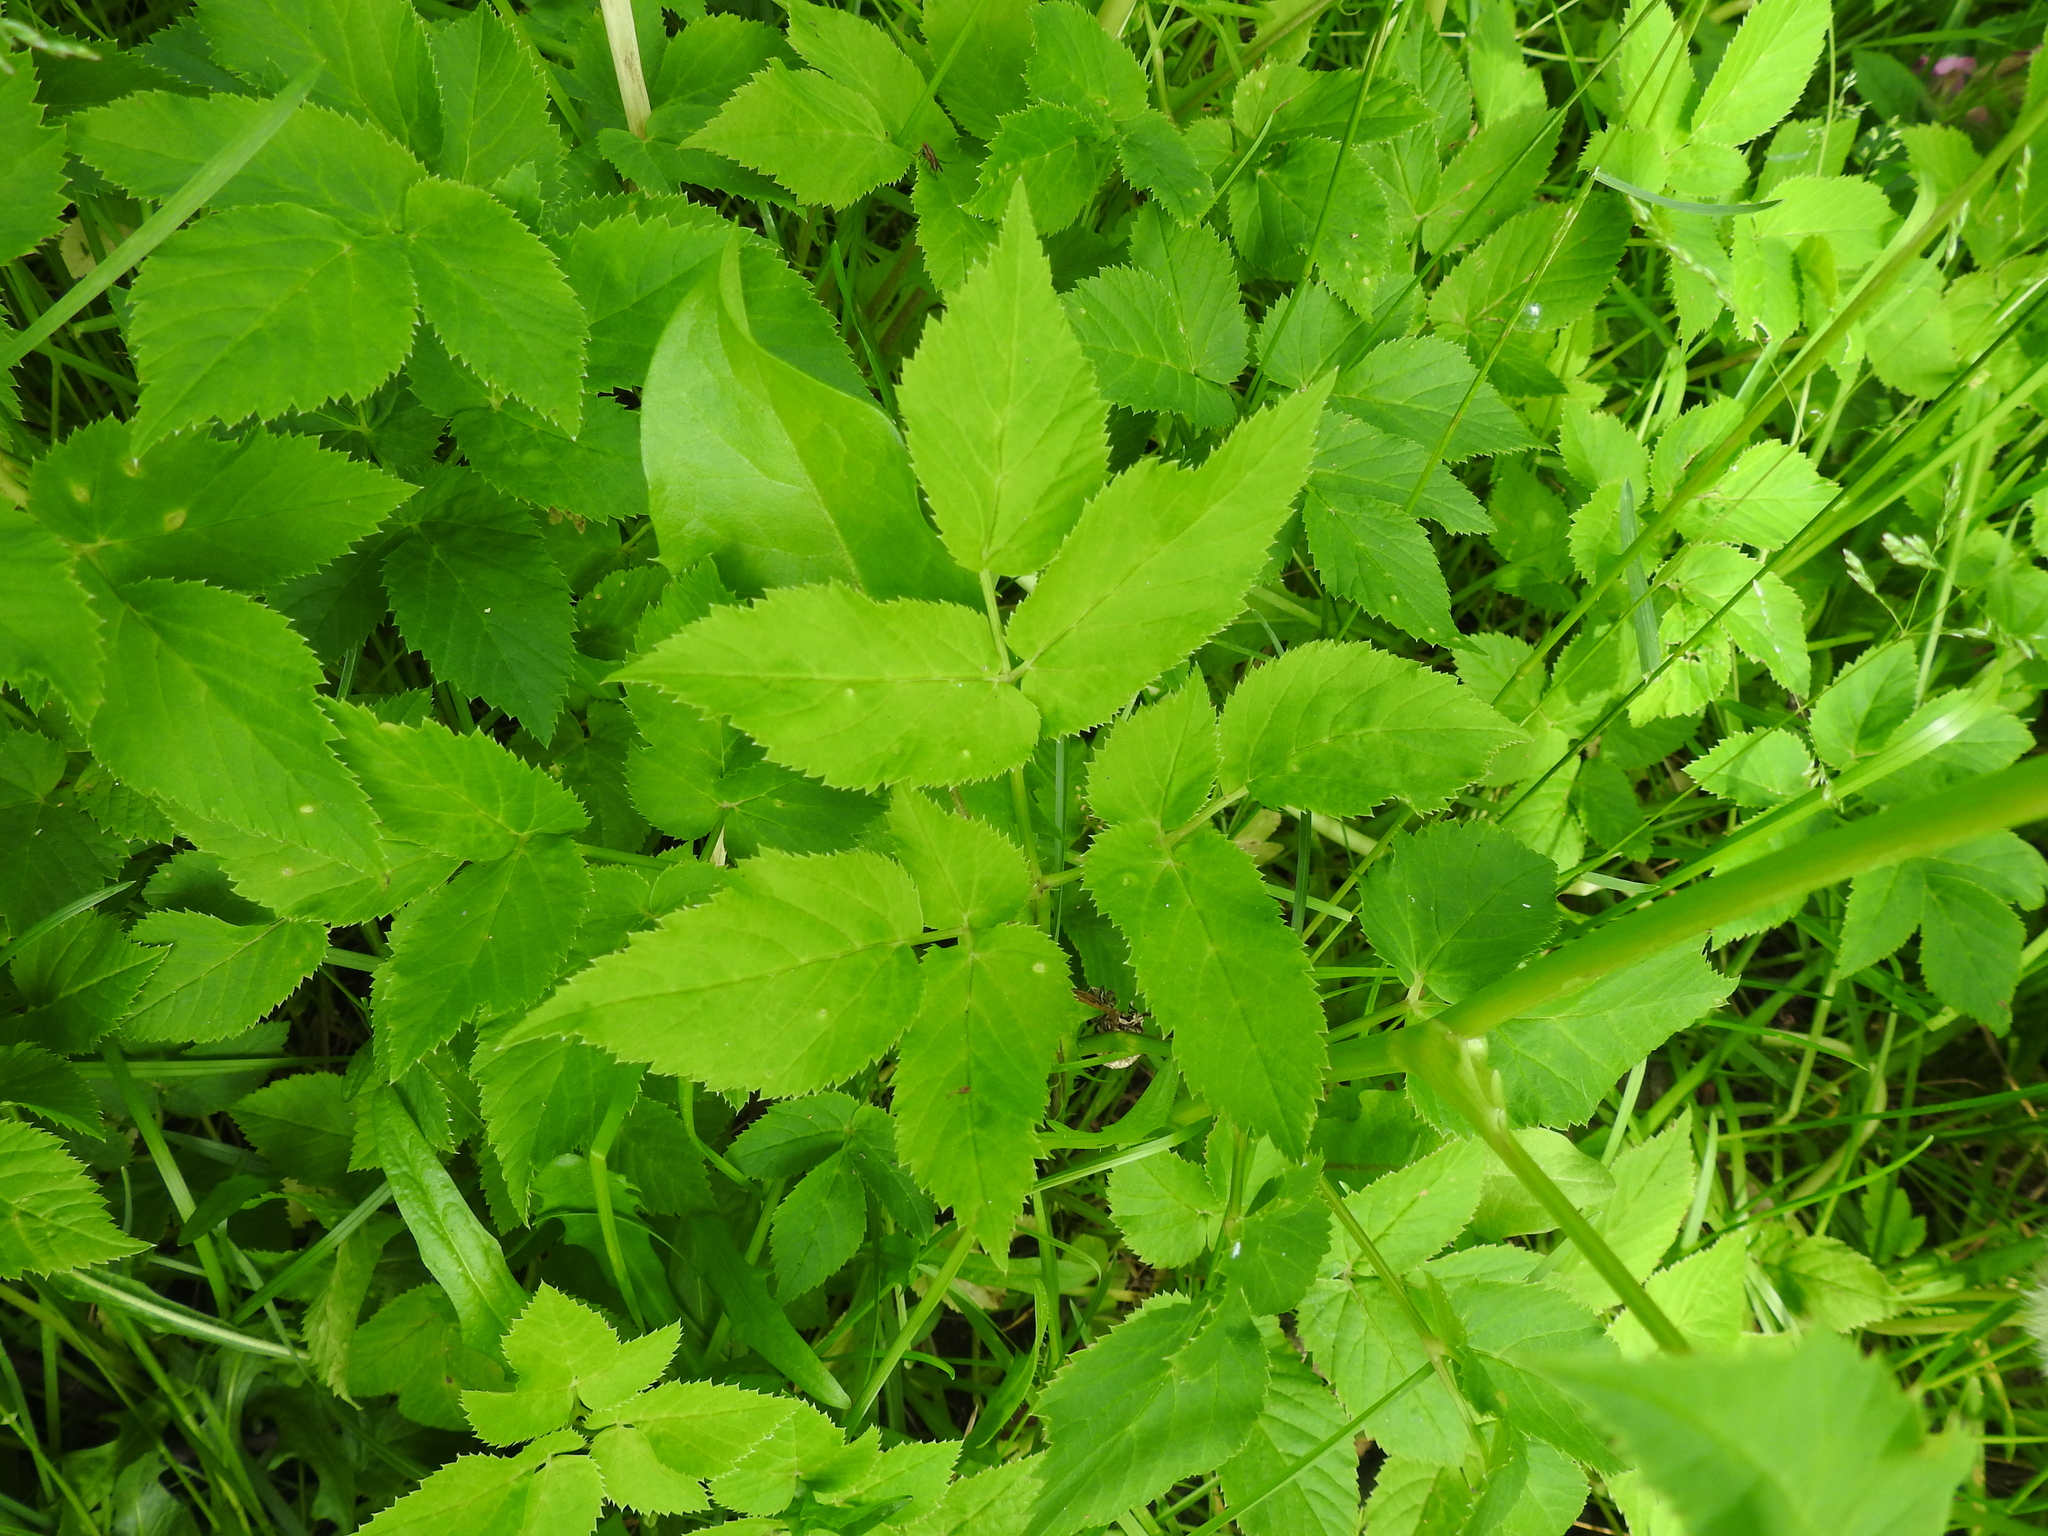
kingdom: Plantae
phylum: Tracheophyta
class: Magnoliopsida
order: Apiales
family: Apiaceae
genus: Aegopodium
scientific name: Aegopodium podagraria
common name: Ground-elder
